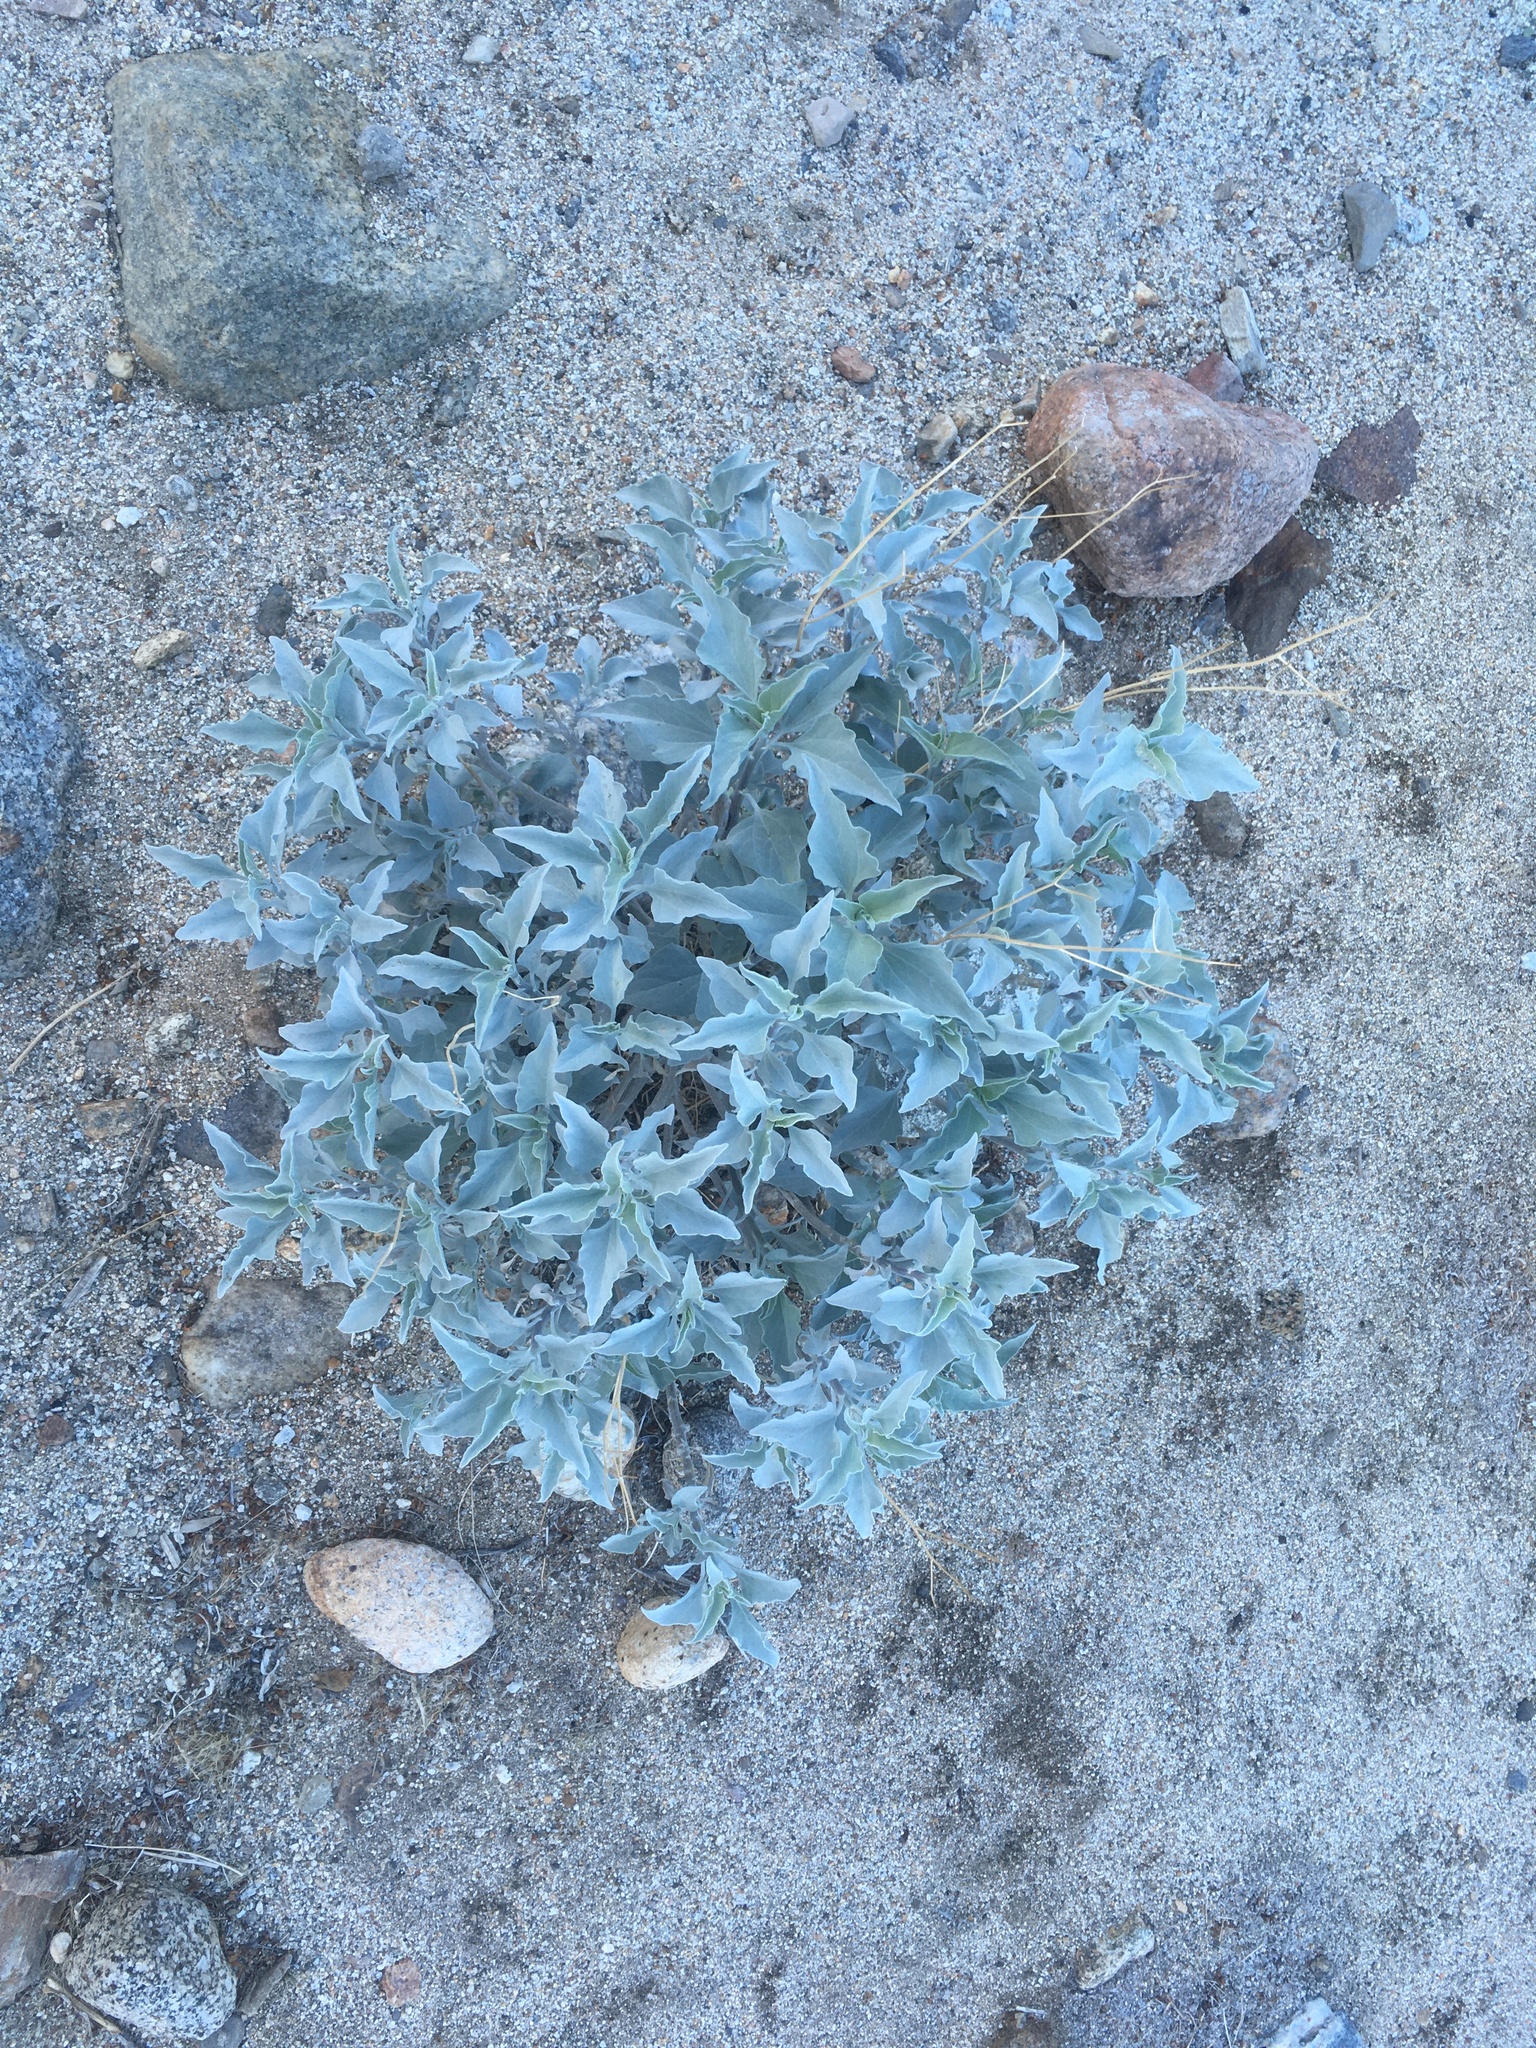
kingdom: Plantae
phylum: Tracheophyta
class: Magnoliopsida
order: Asterales
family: Asteraceae
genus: Encelia
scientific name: Encelia farinosa
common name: Brittlebush
